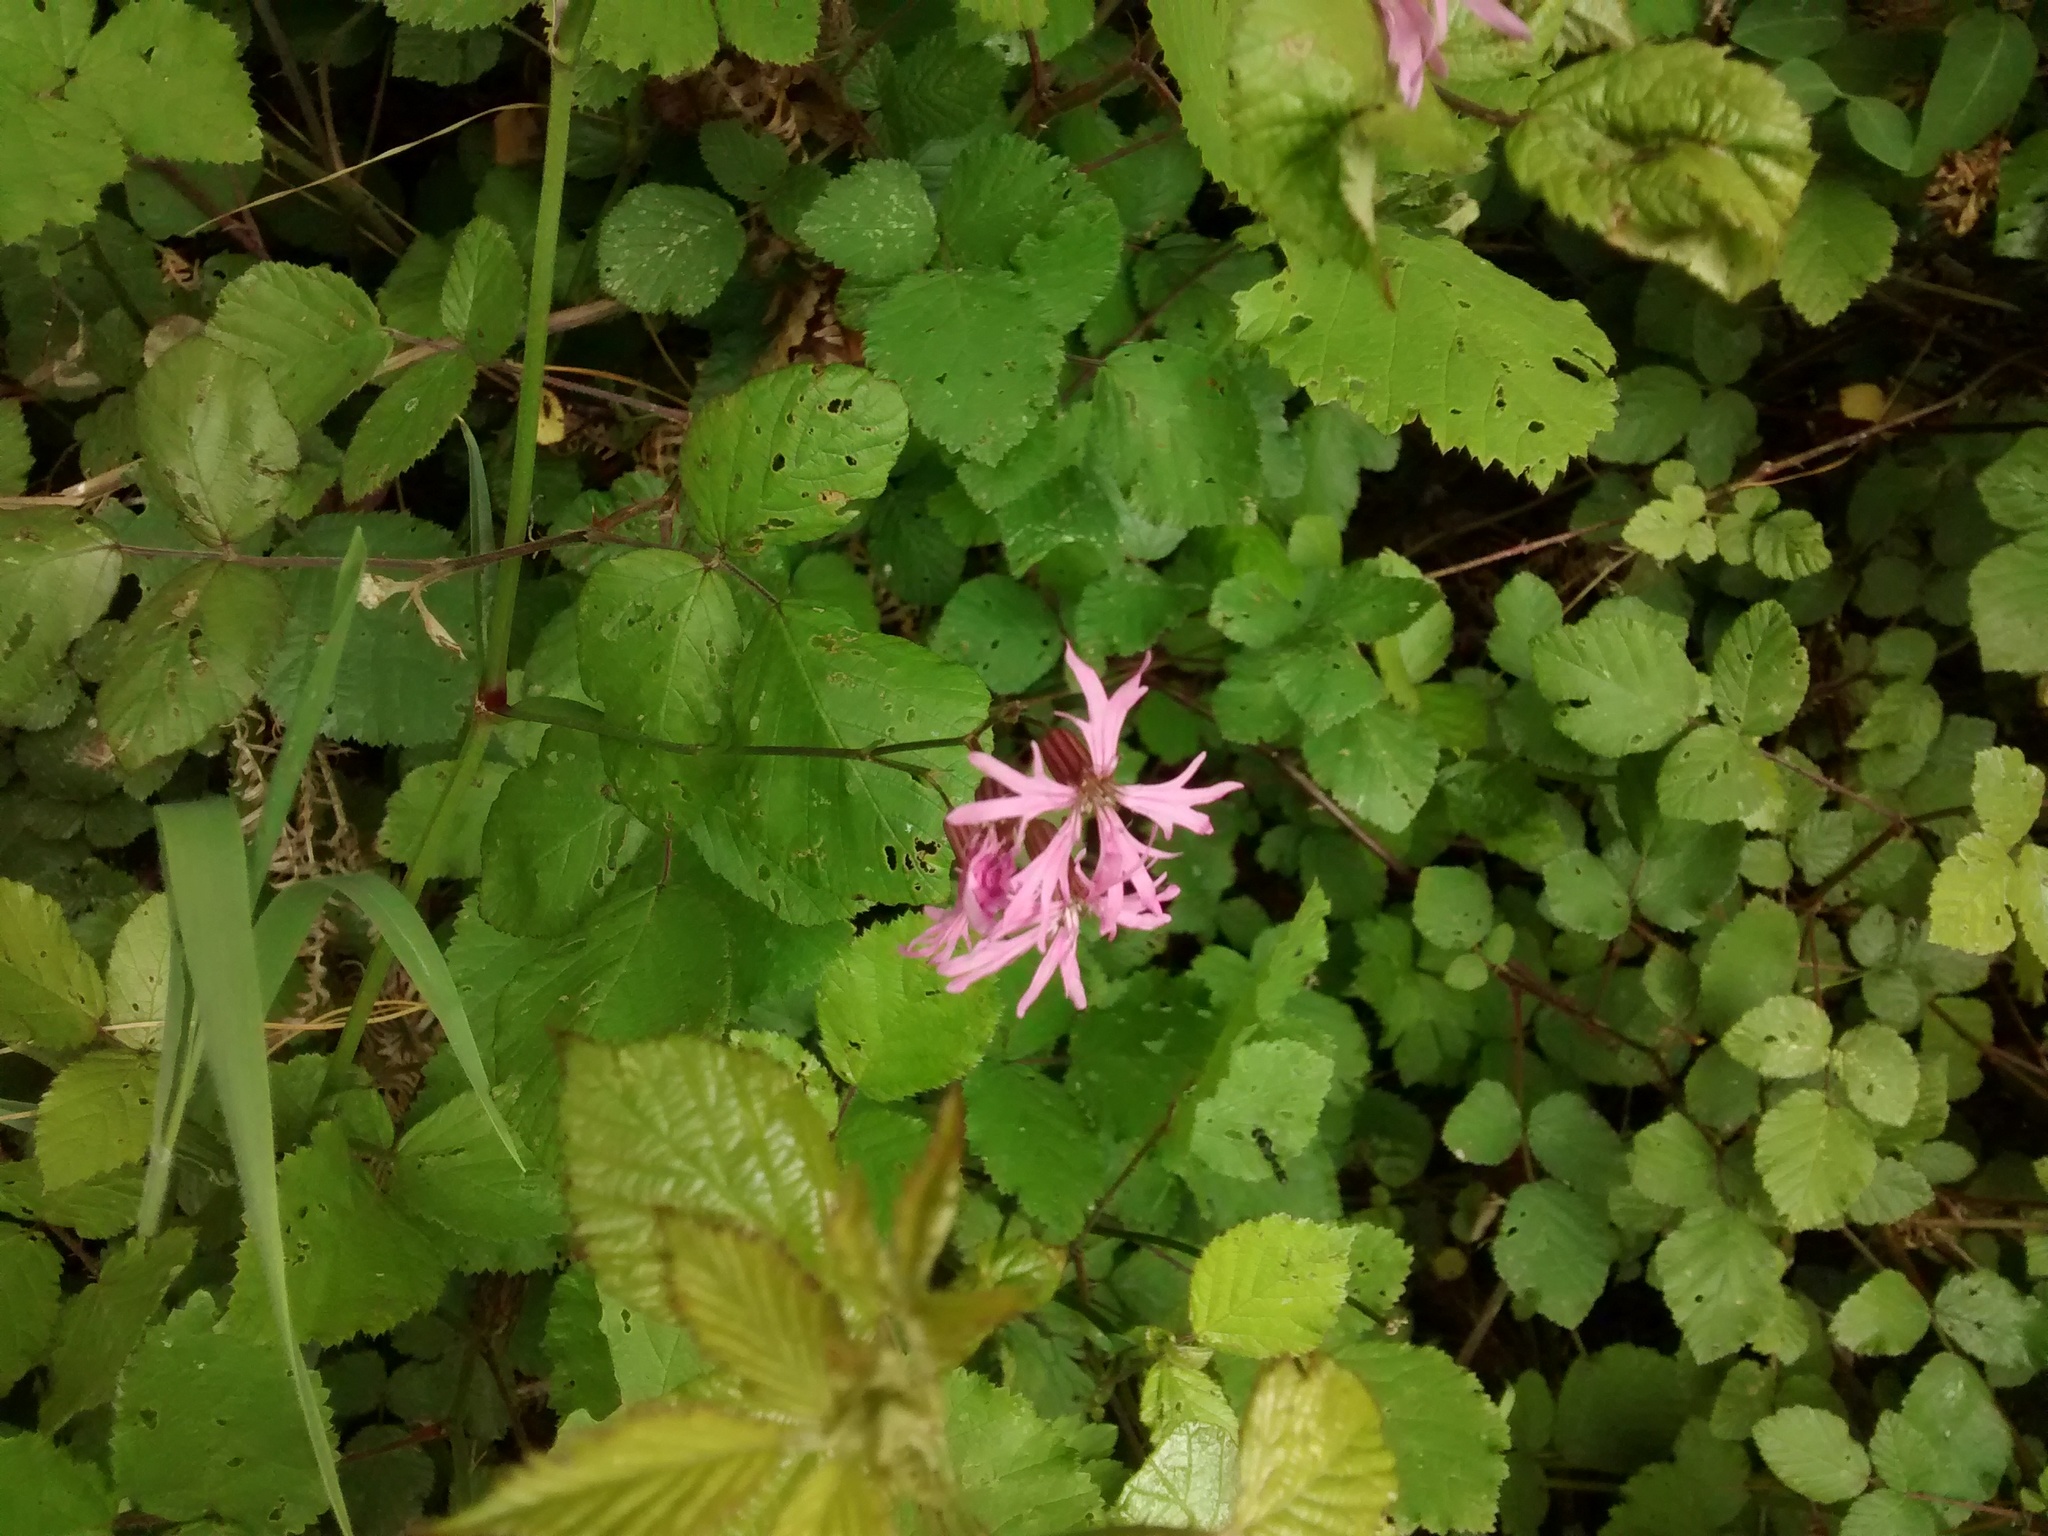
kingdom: Plantae
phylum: Tracheophyta
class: Magnoliopsida
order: Caryophyllales
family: Caryophyllaceae
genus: Silene
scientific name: Silene flos-cuculi
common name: Ragged-robin
